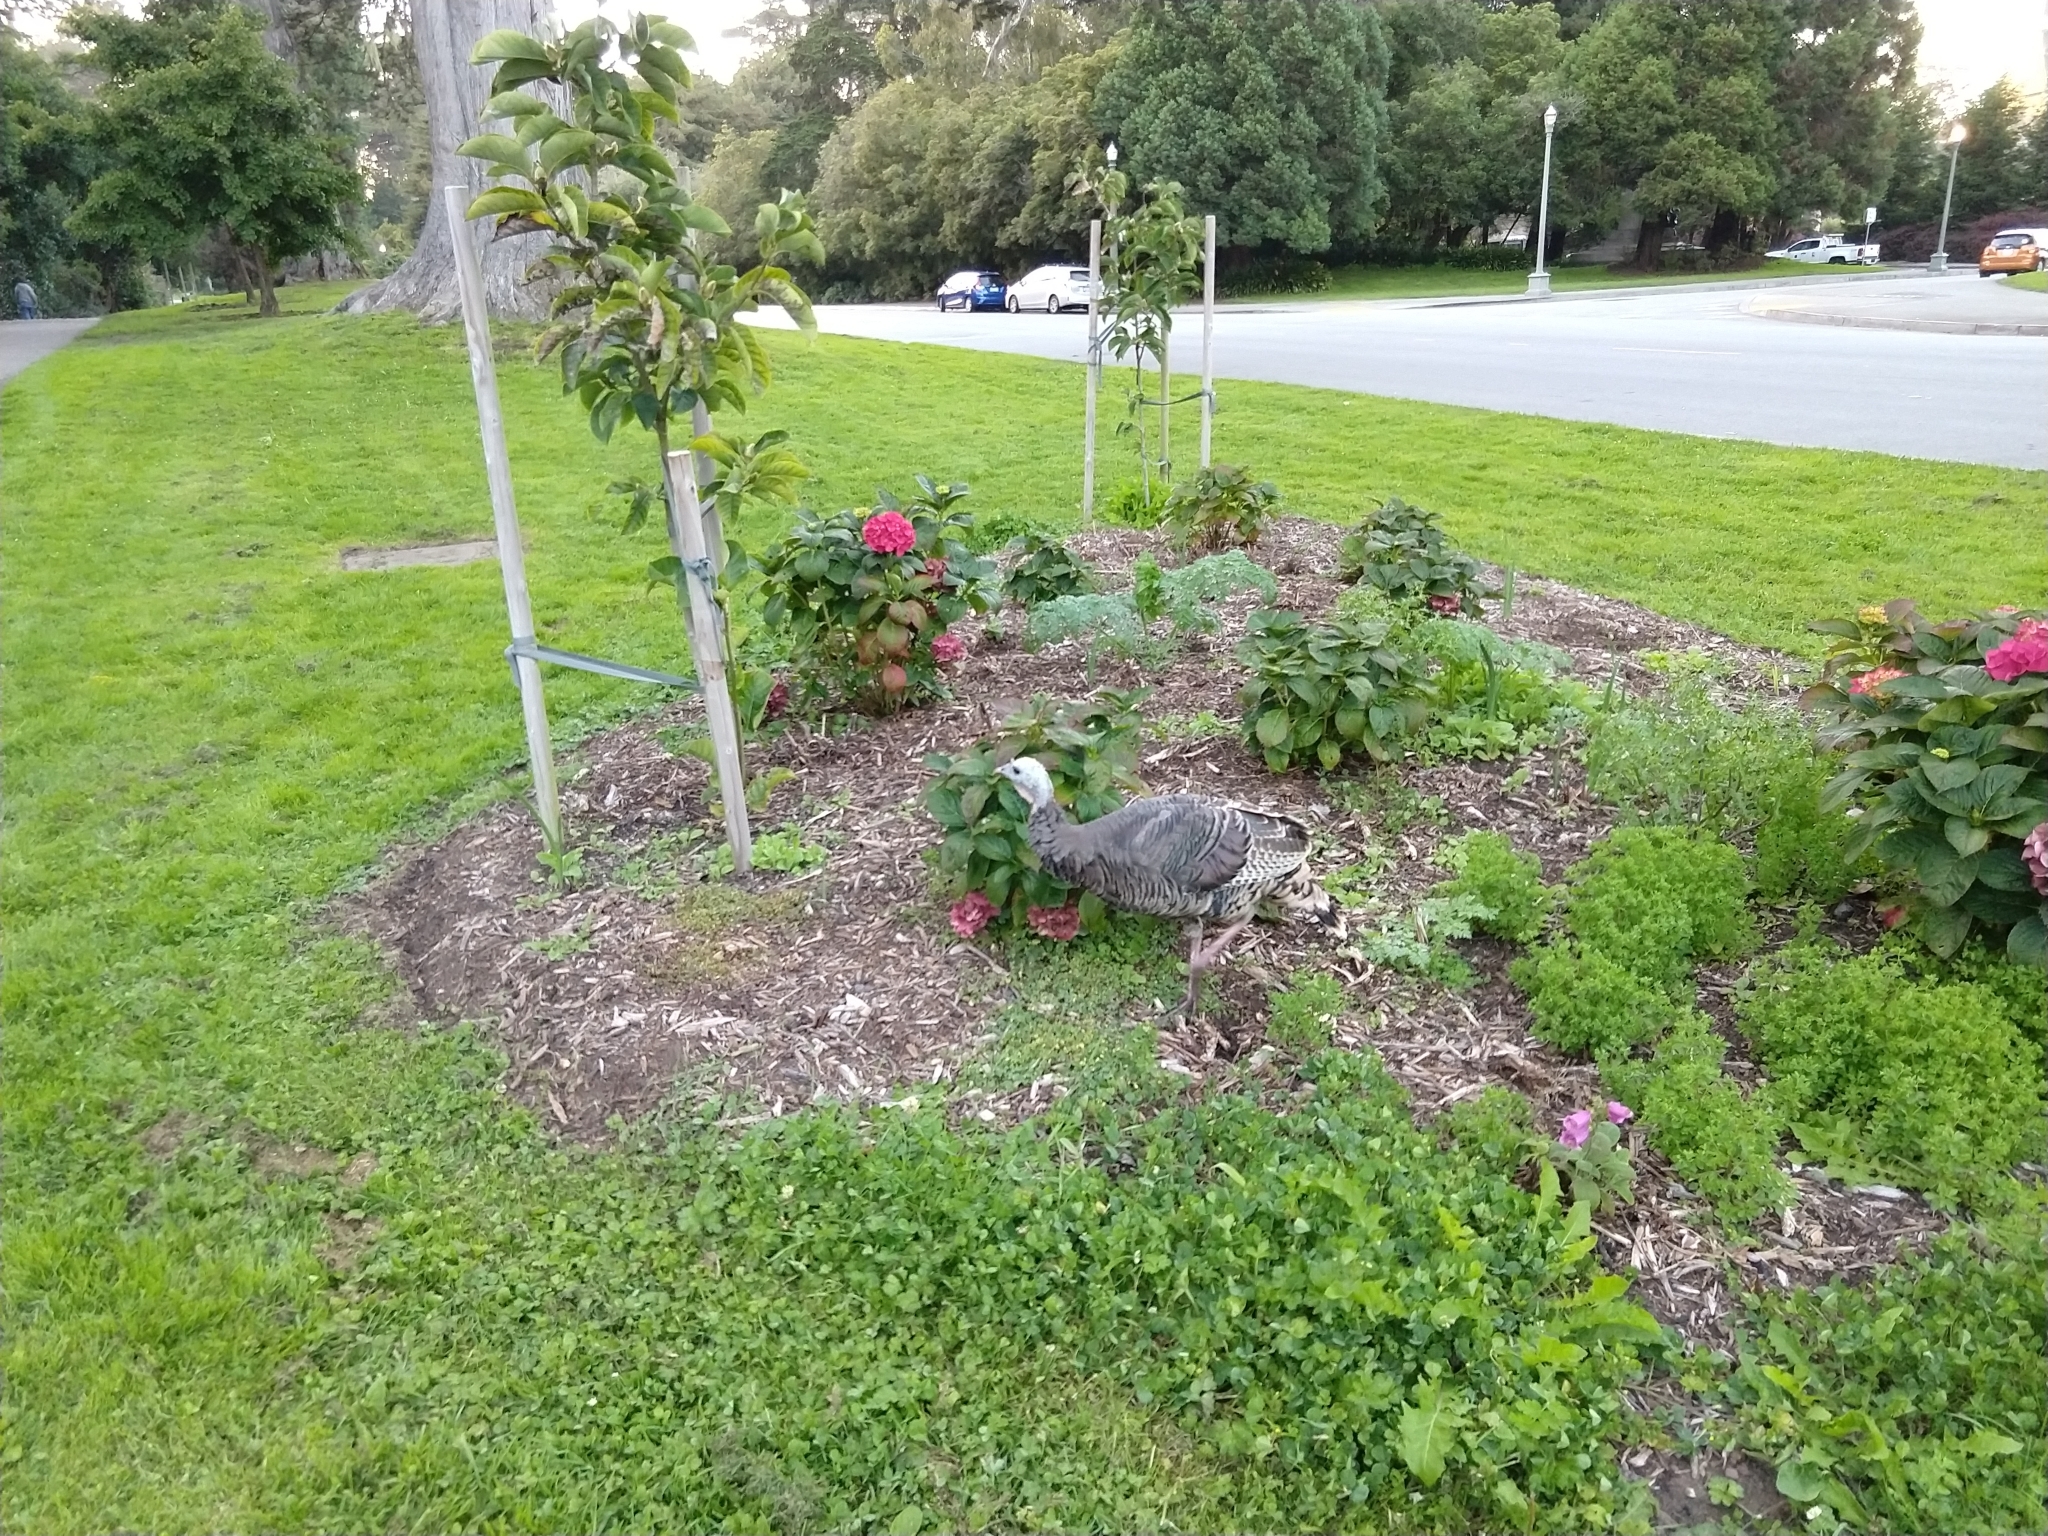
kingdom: Animalia
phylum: Chordata
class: Aves
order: Galliformes
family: Phasianidae
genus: Meleagris
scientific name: Meleagris gallopavo
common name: Wild turkey
